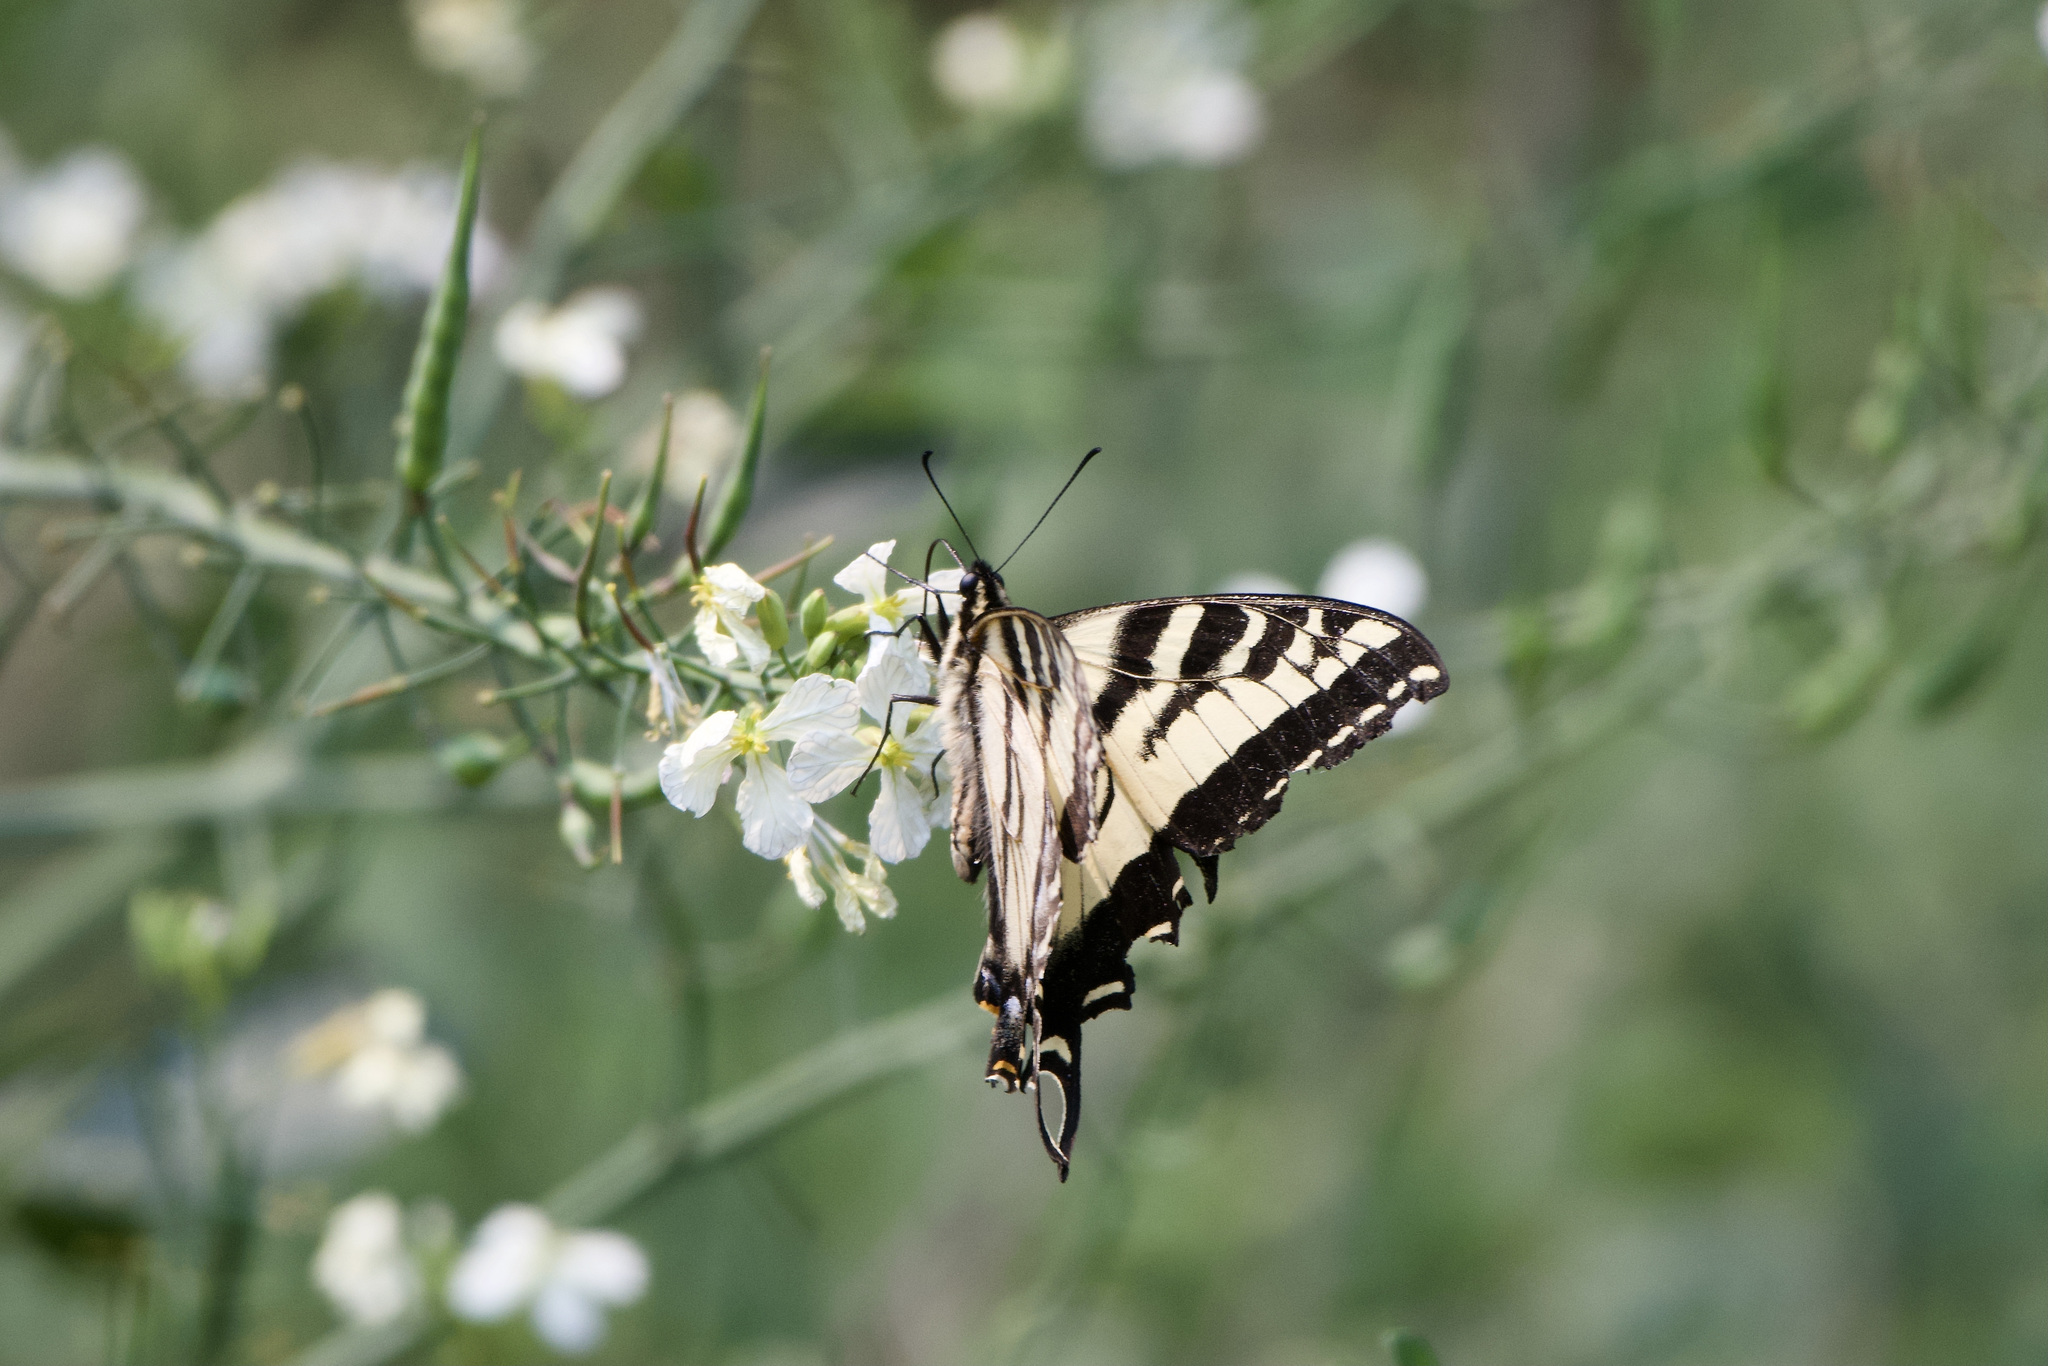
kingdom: Animalia
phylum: Arthropoda
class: Insecta
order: Lepidoptera
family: Papilionidae
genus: Papilio
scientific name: Papilio rutulus
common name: Western tiger swallowtail
